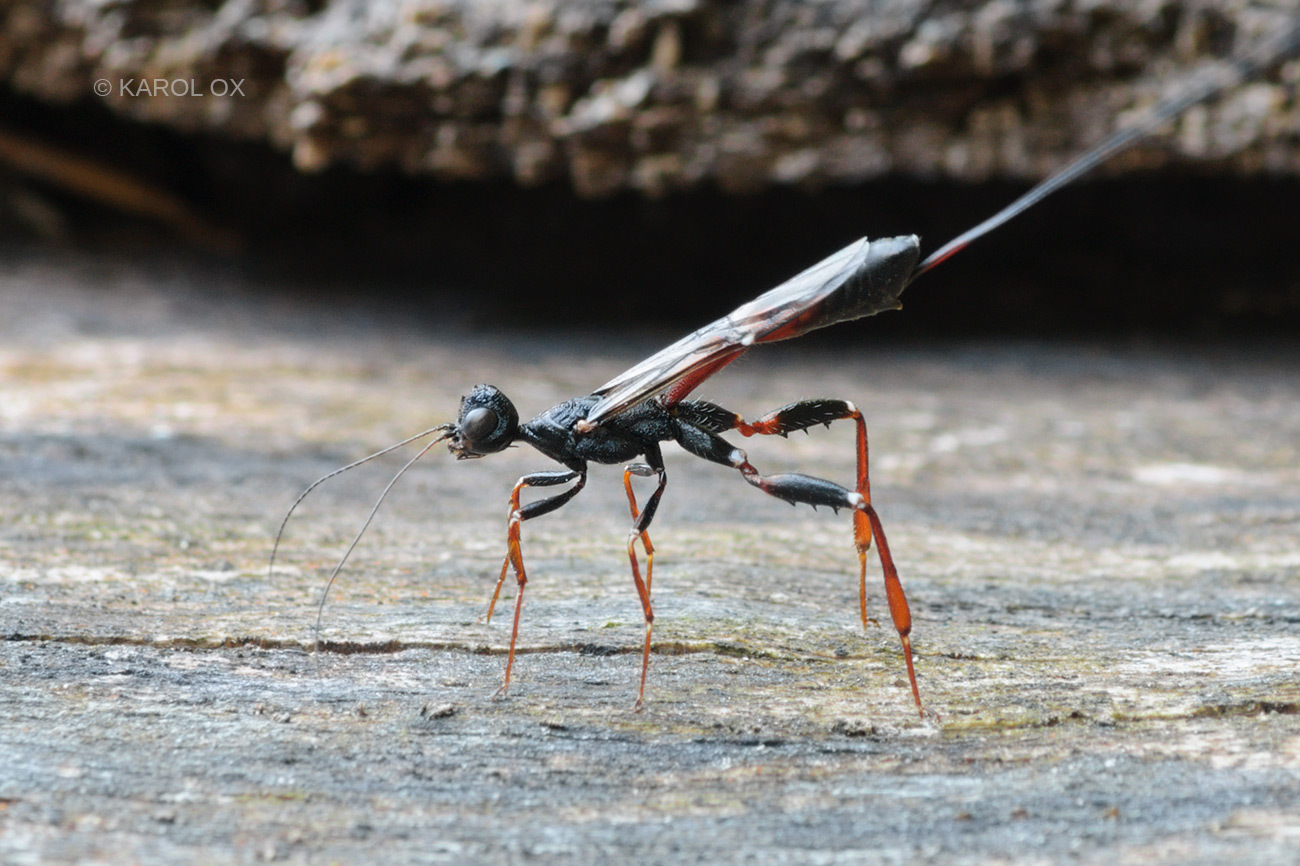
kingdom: Animalia
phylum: Arthropoda
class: Insecta
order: Hymenoptera
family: Stephanidae
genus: Stephanus
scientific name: Stephanus serrator
